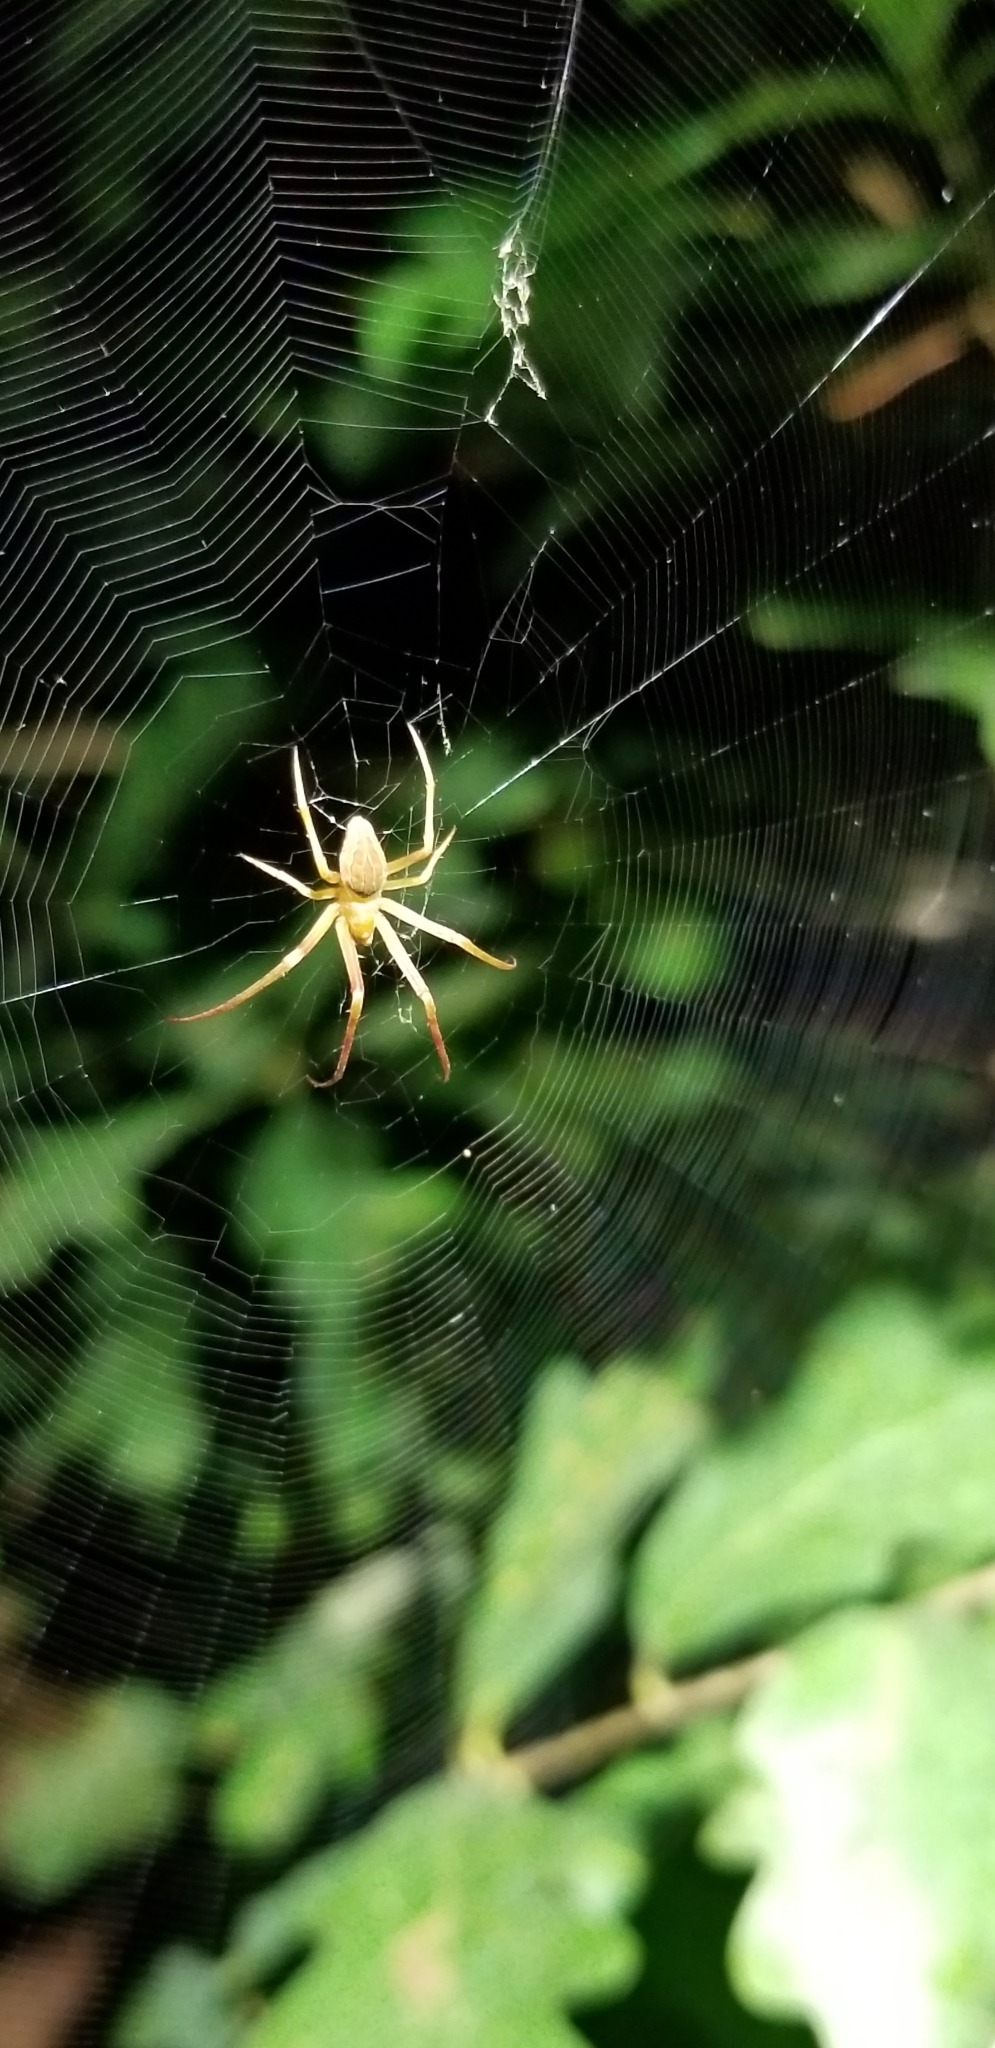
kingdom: Animalia
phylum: Arthropoda
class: Arachnida
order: Araneae
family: Araneidae
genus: Acacesia
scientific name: Acacesia hamata
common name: Orb weavers
